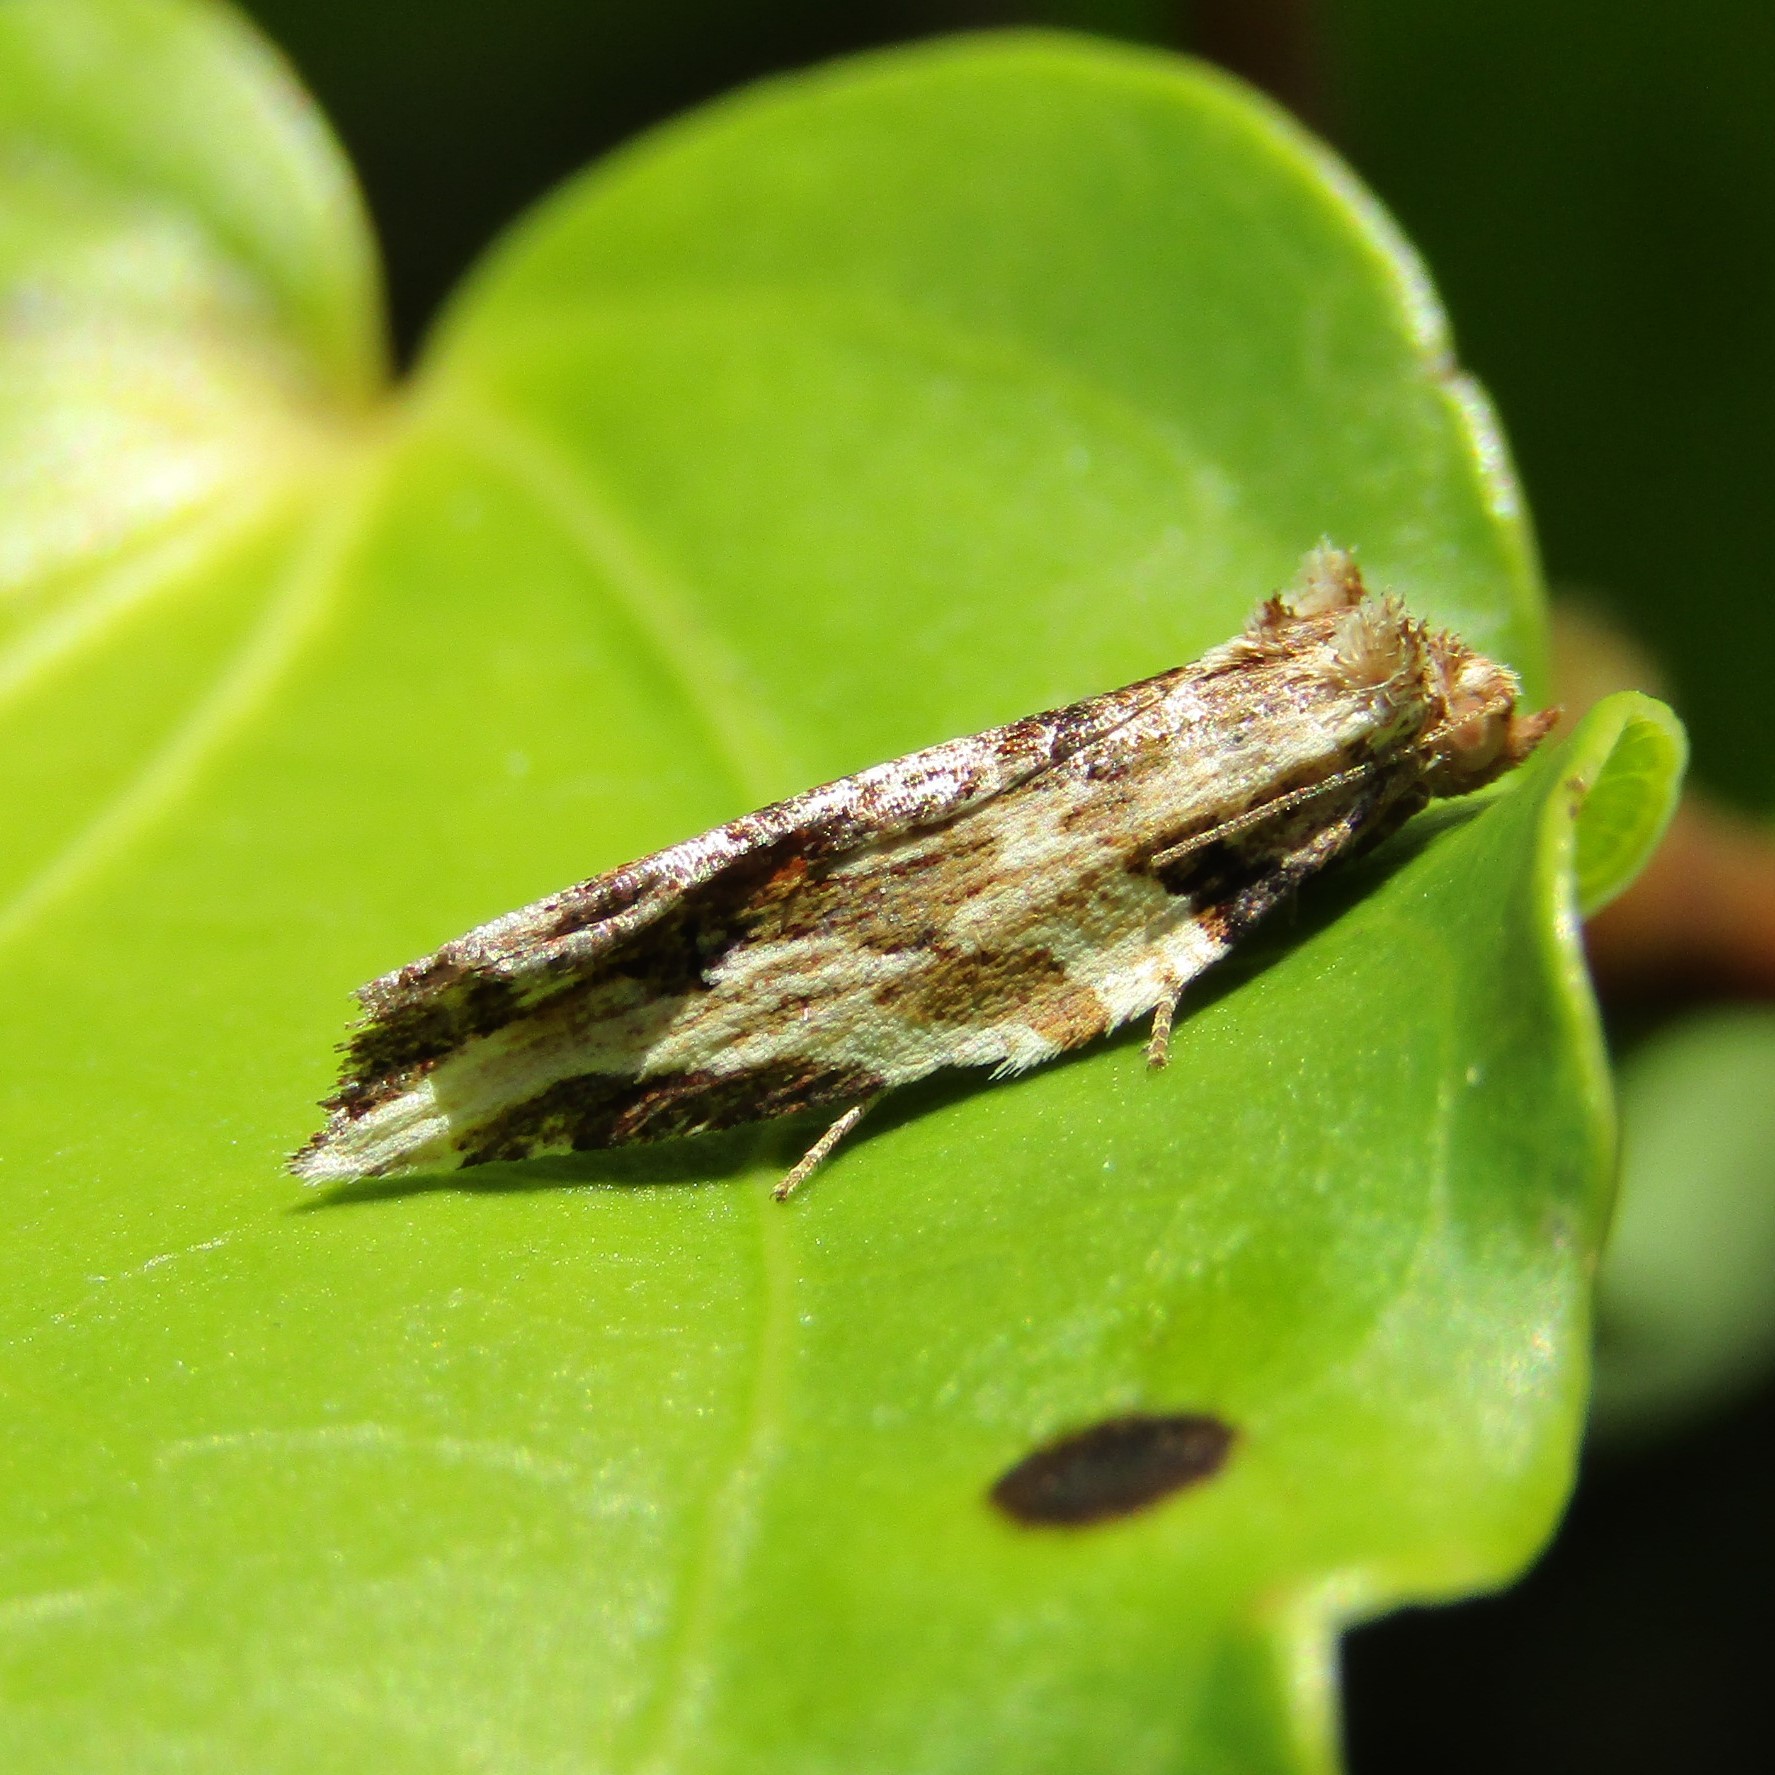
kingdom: Animalia
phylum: Arthropoda
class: Insecta
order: Lepidoptera
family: Tortricidae
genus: Epalxiphora
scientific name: Epalxiphora axenana
